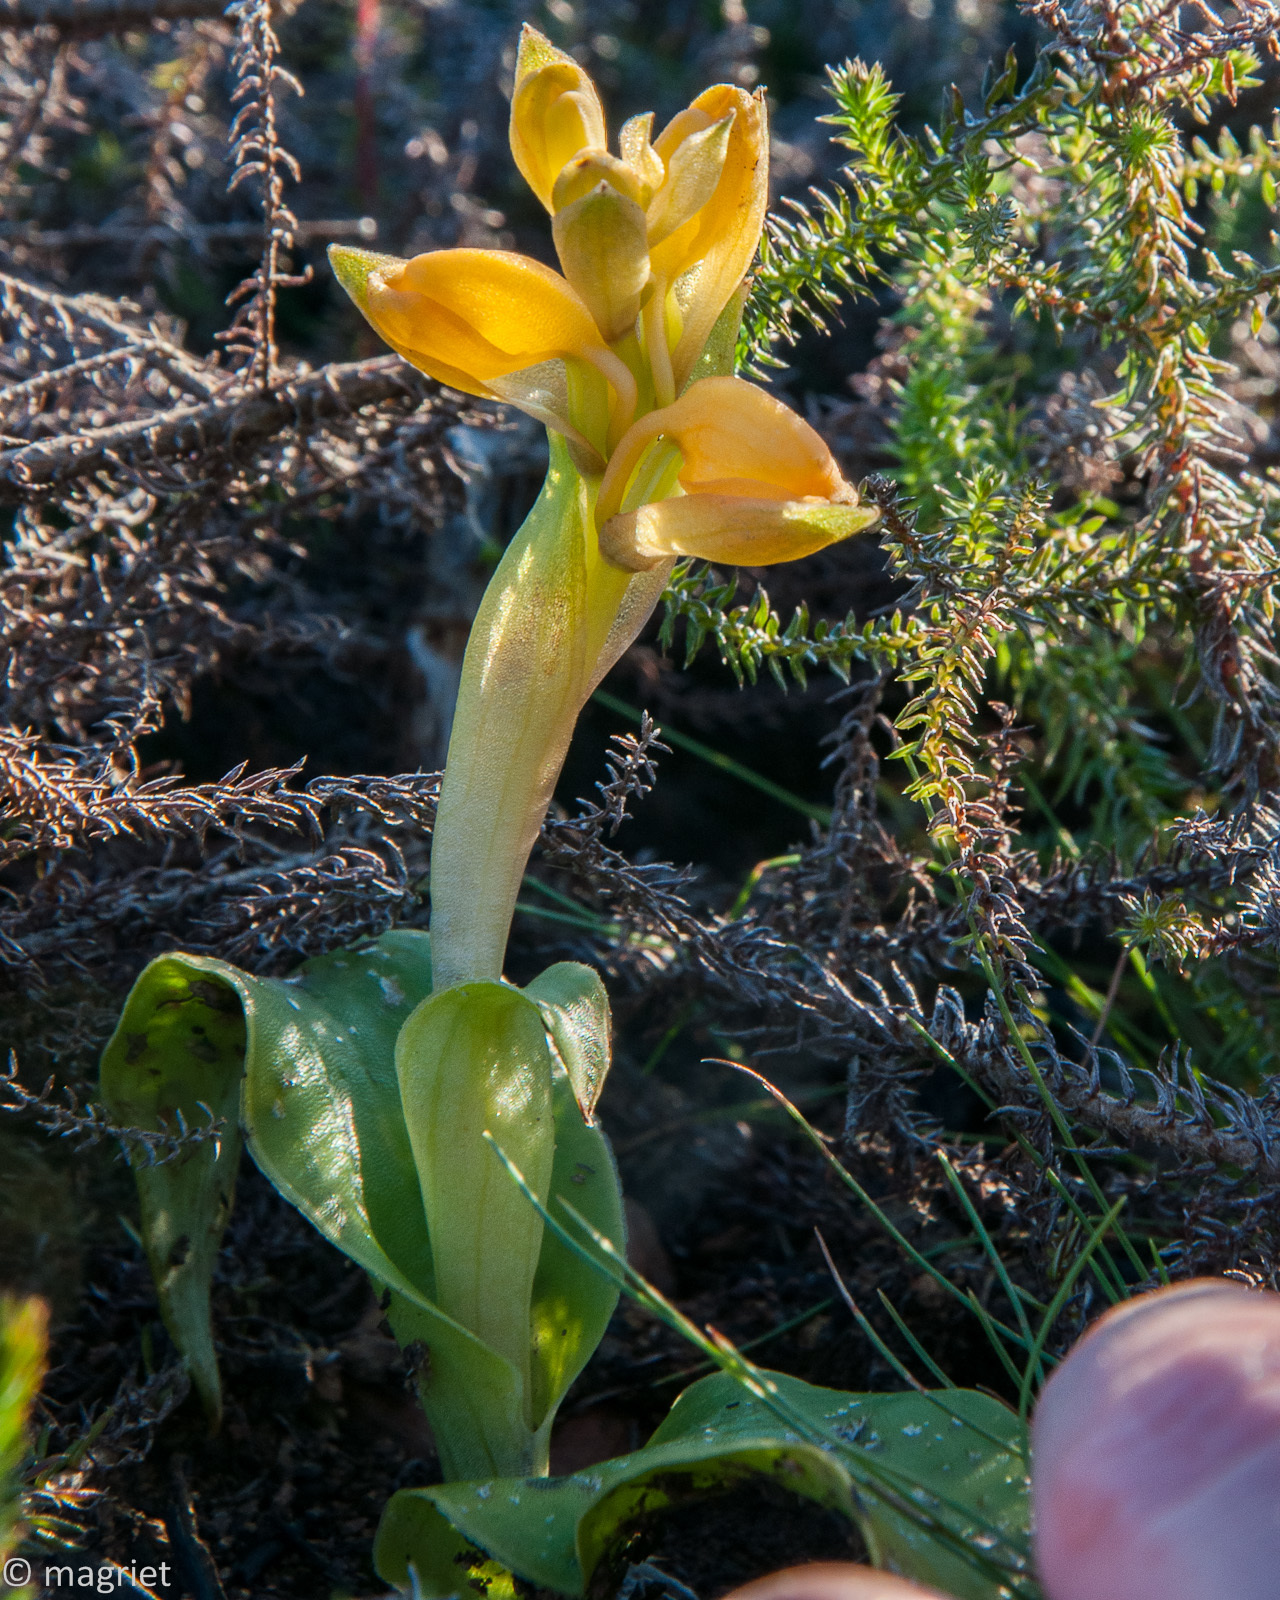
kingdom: Plantae
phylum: Tracheophyta
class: Liliopsida
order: Asparagales
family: Orchidaceae
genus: Satyrium
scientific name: Satyrium coriifolium
